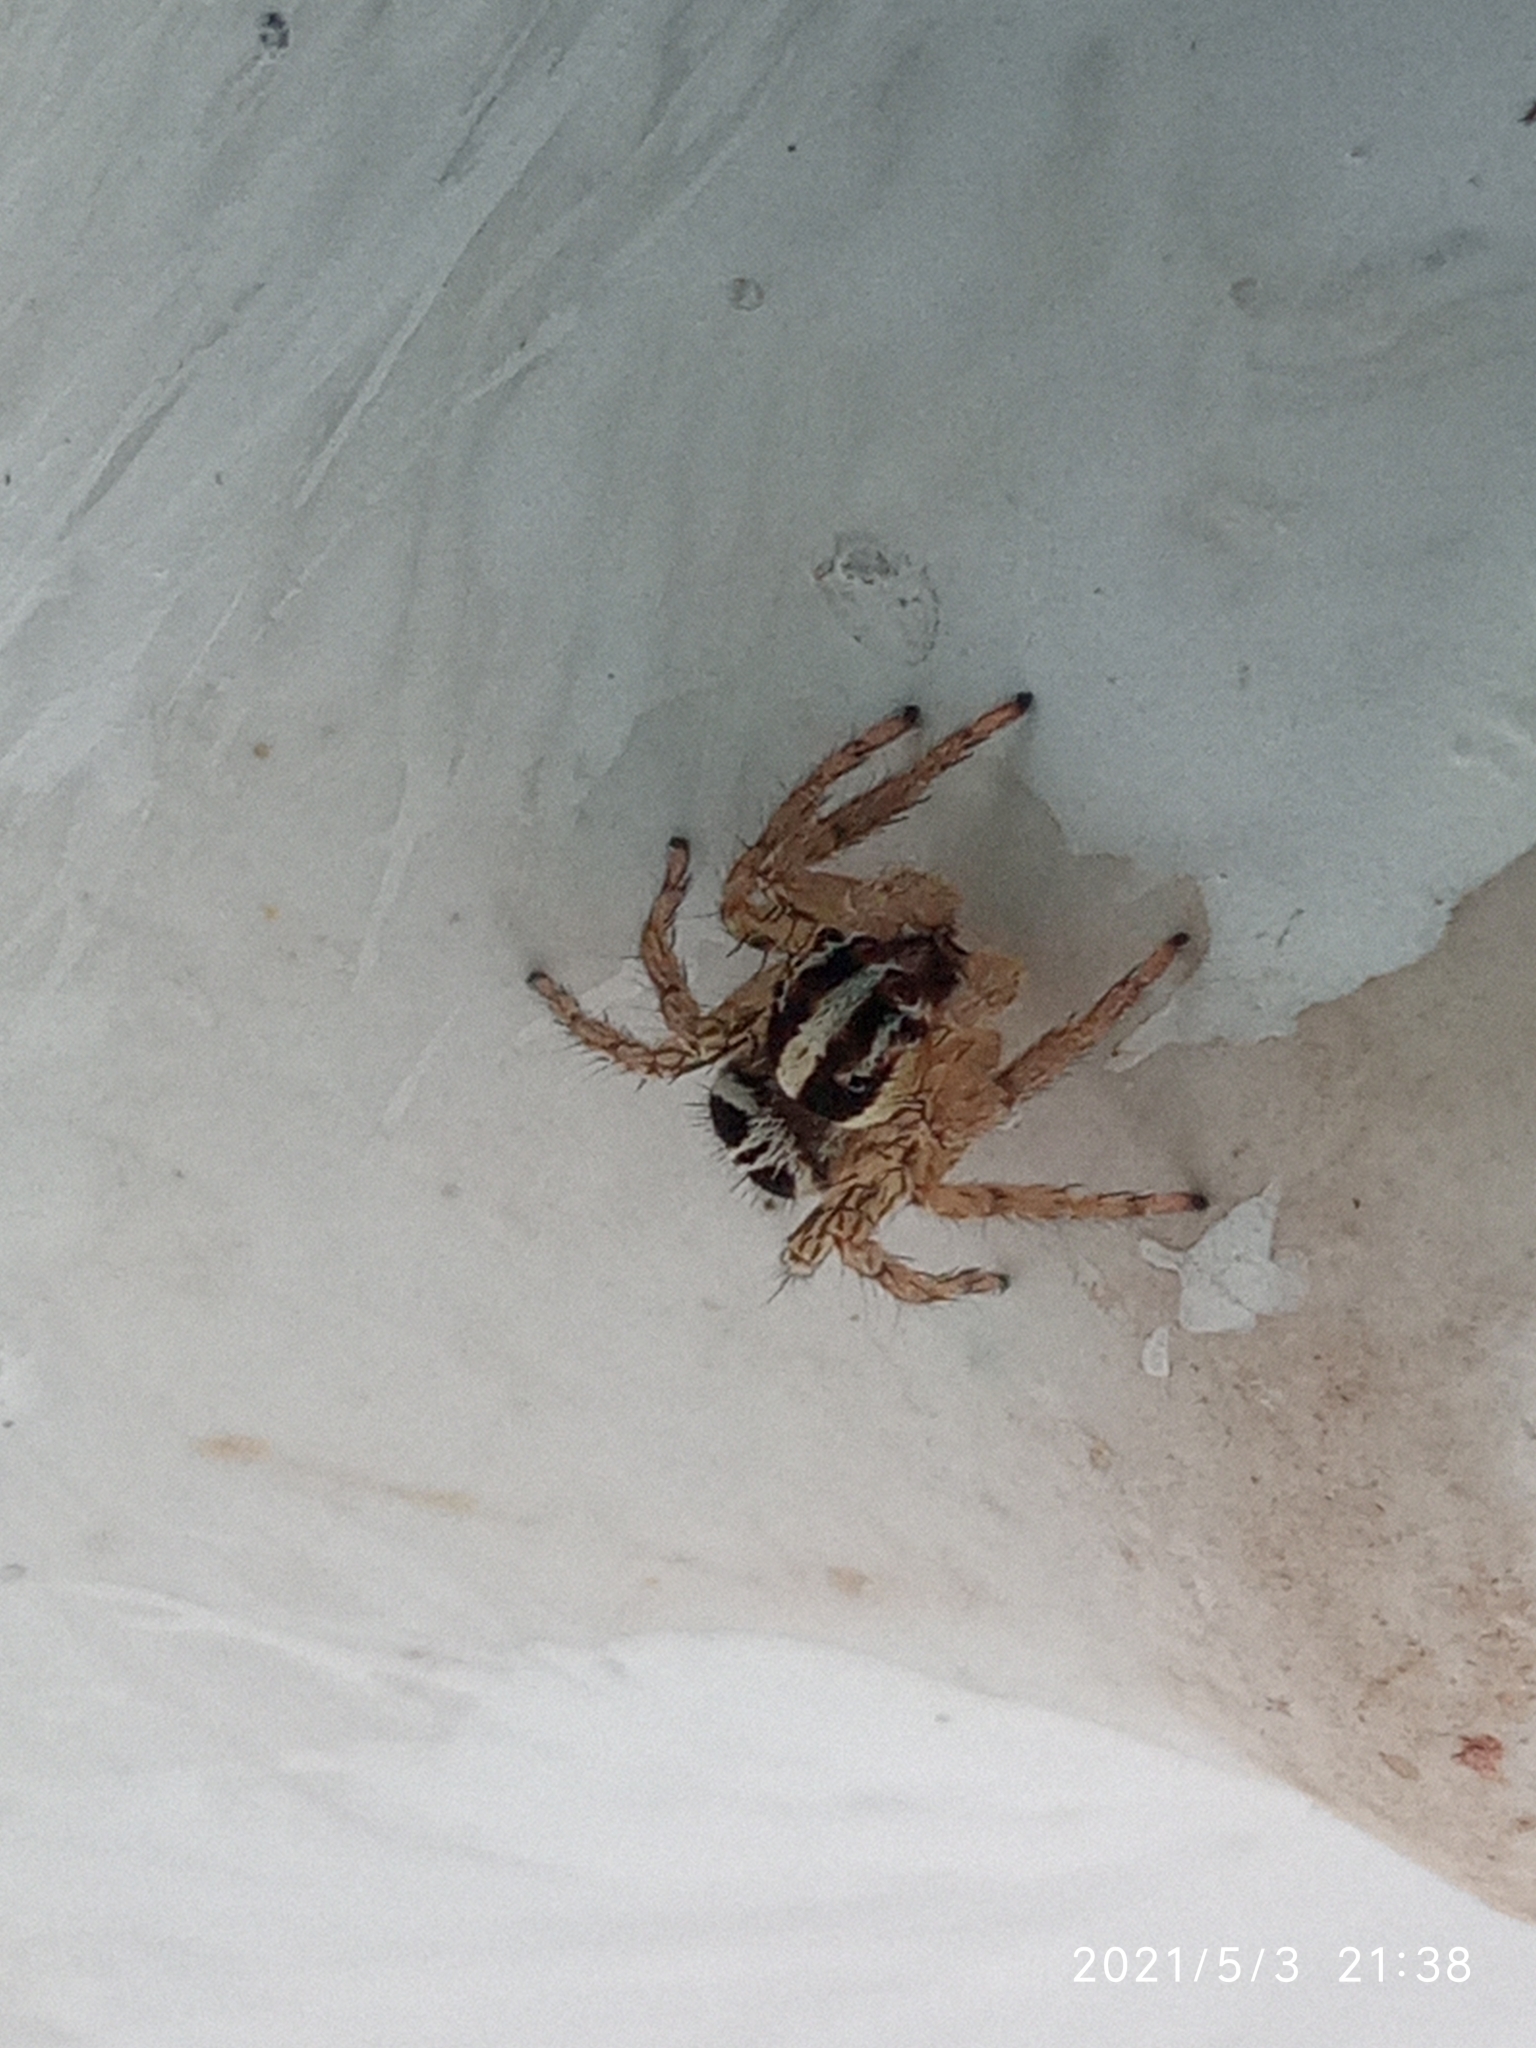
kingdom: Animalia
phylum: Arthropoda
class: Arachnida
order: Araneae
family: Salticidae
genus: Plexippus
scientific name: Plexippus paykulli
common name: Pantropical jumper
